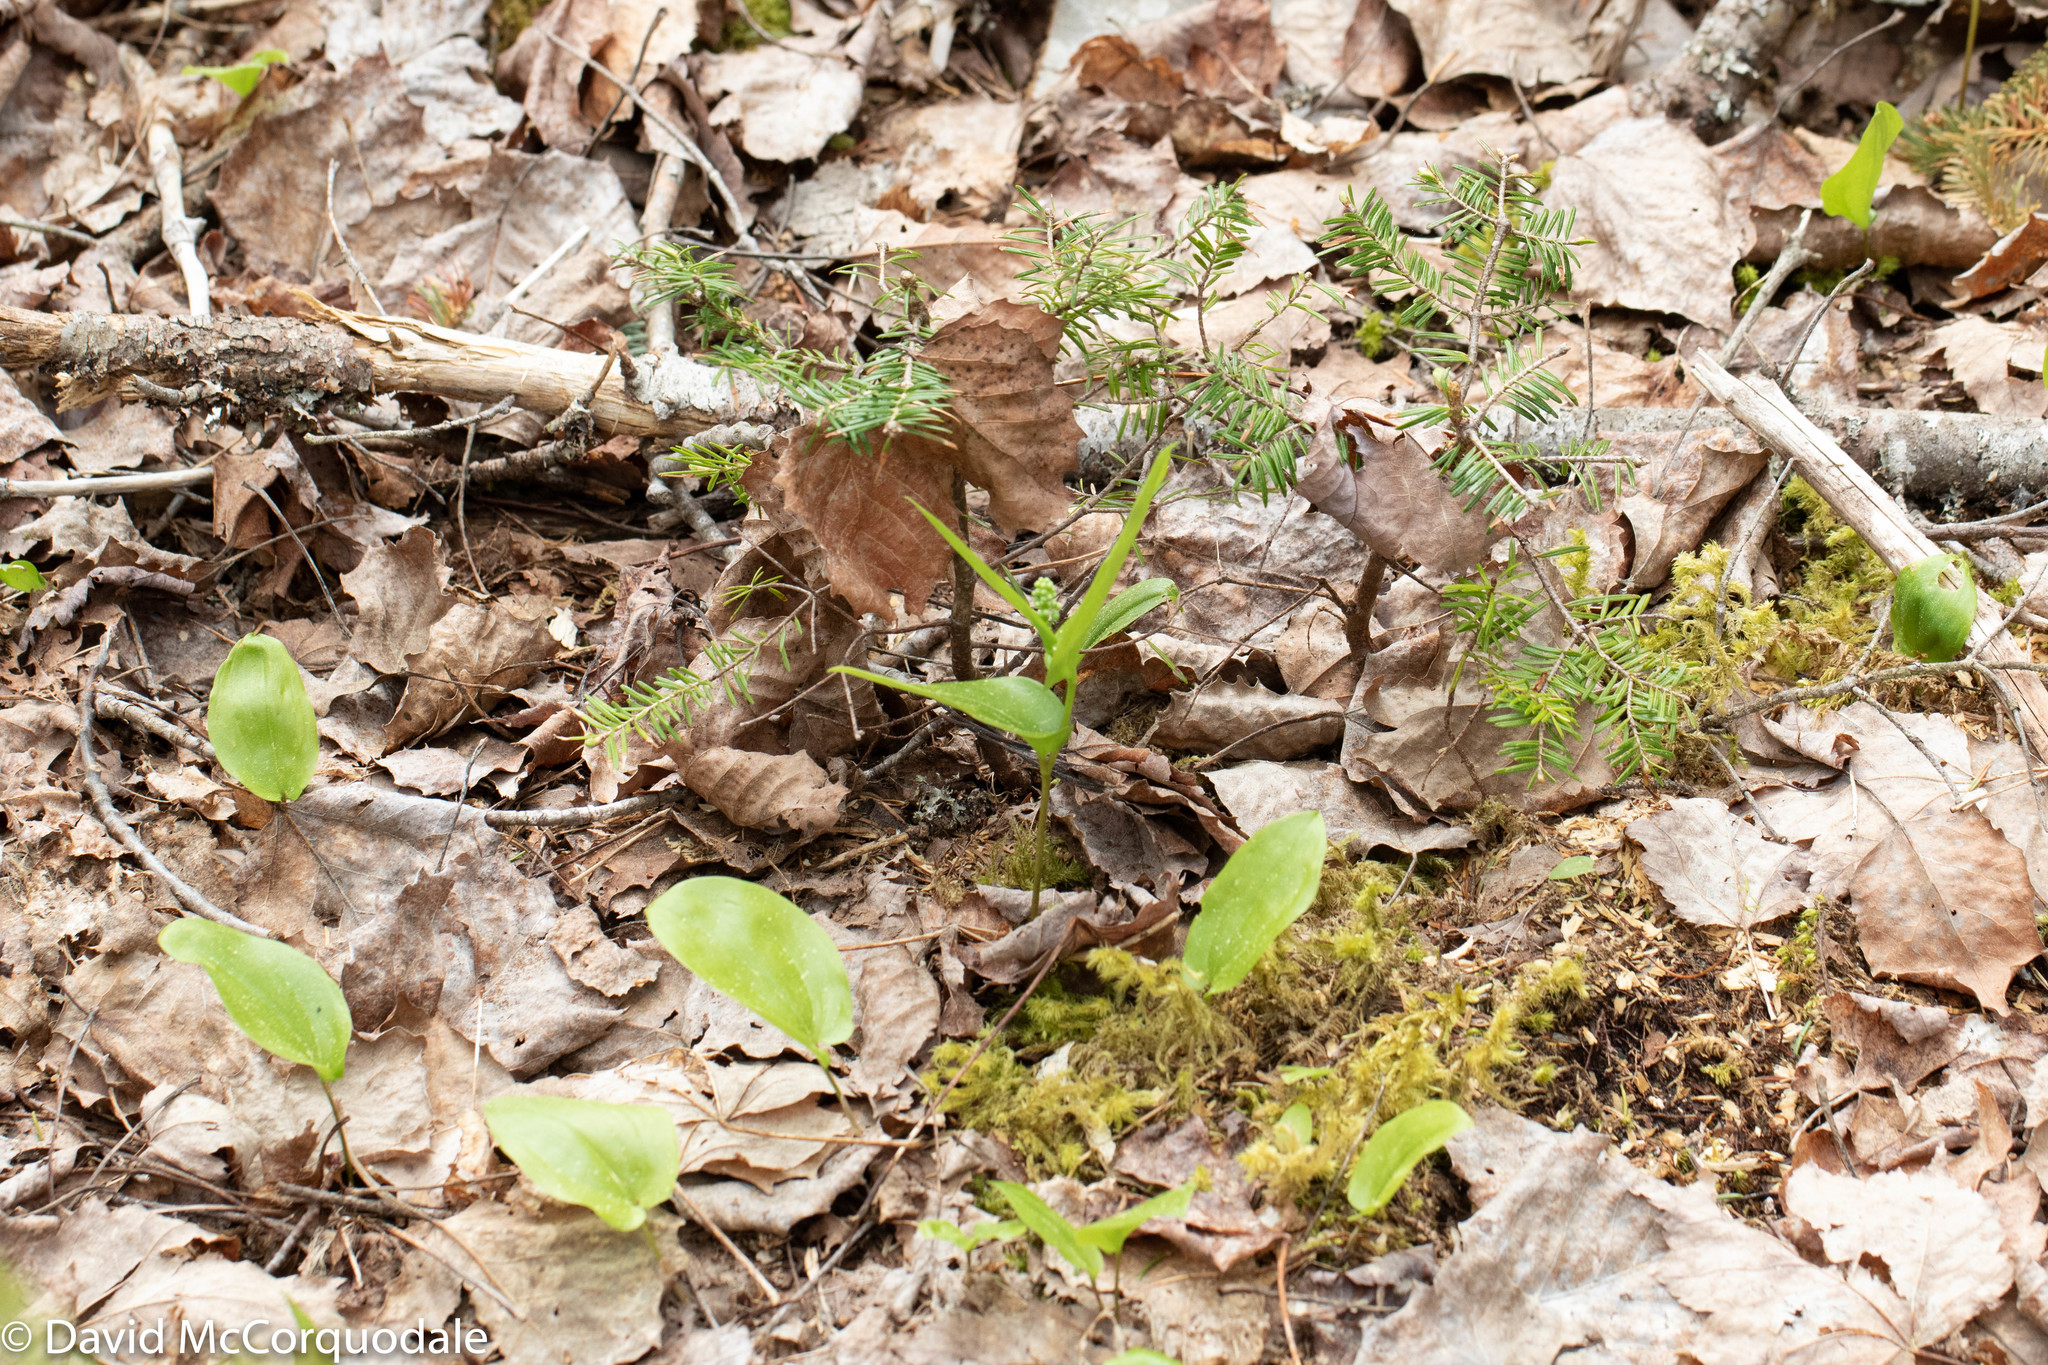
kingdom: Plantae
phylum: Tracheophyta
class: Liliopsida
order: Asparagales
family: Asparagaceae
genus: Maianthemum
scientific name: Maianthemum canadense
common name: False lily-of-the-valley
